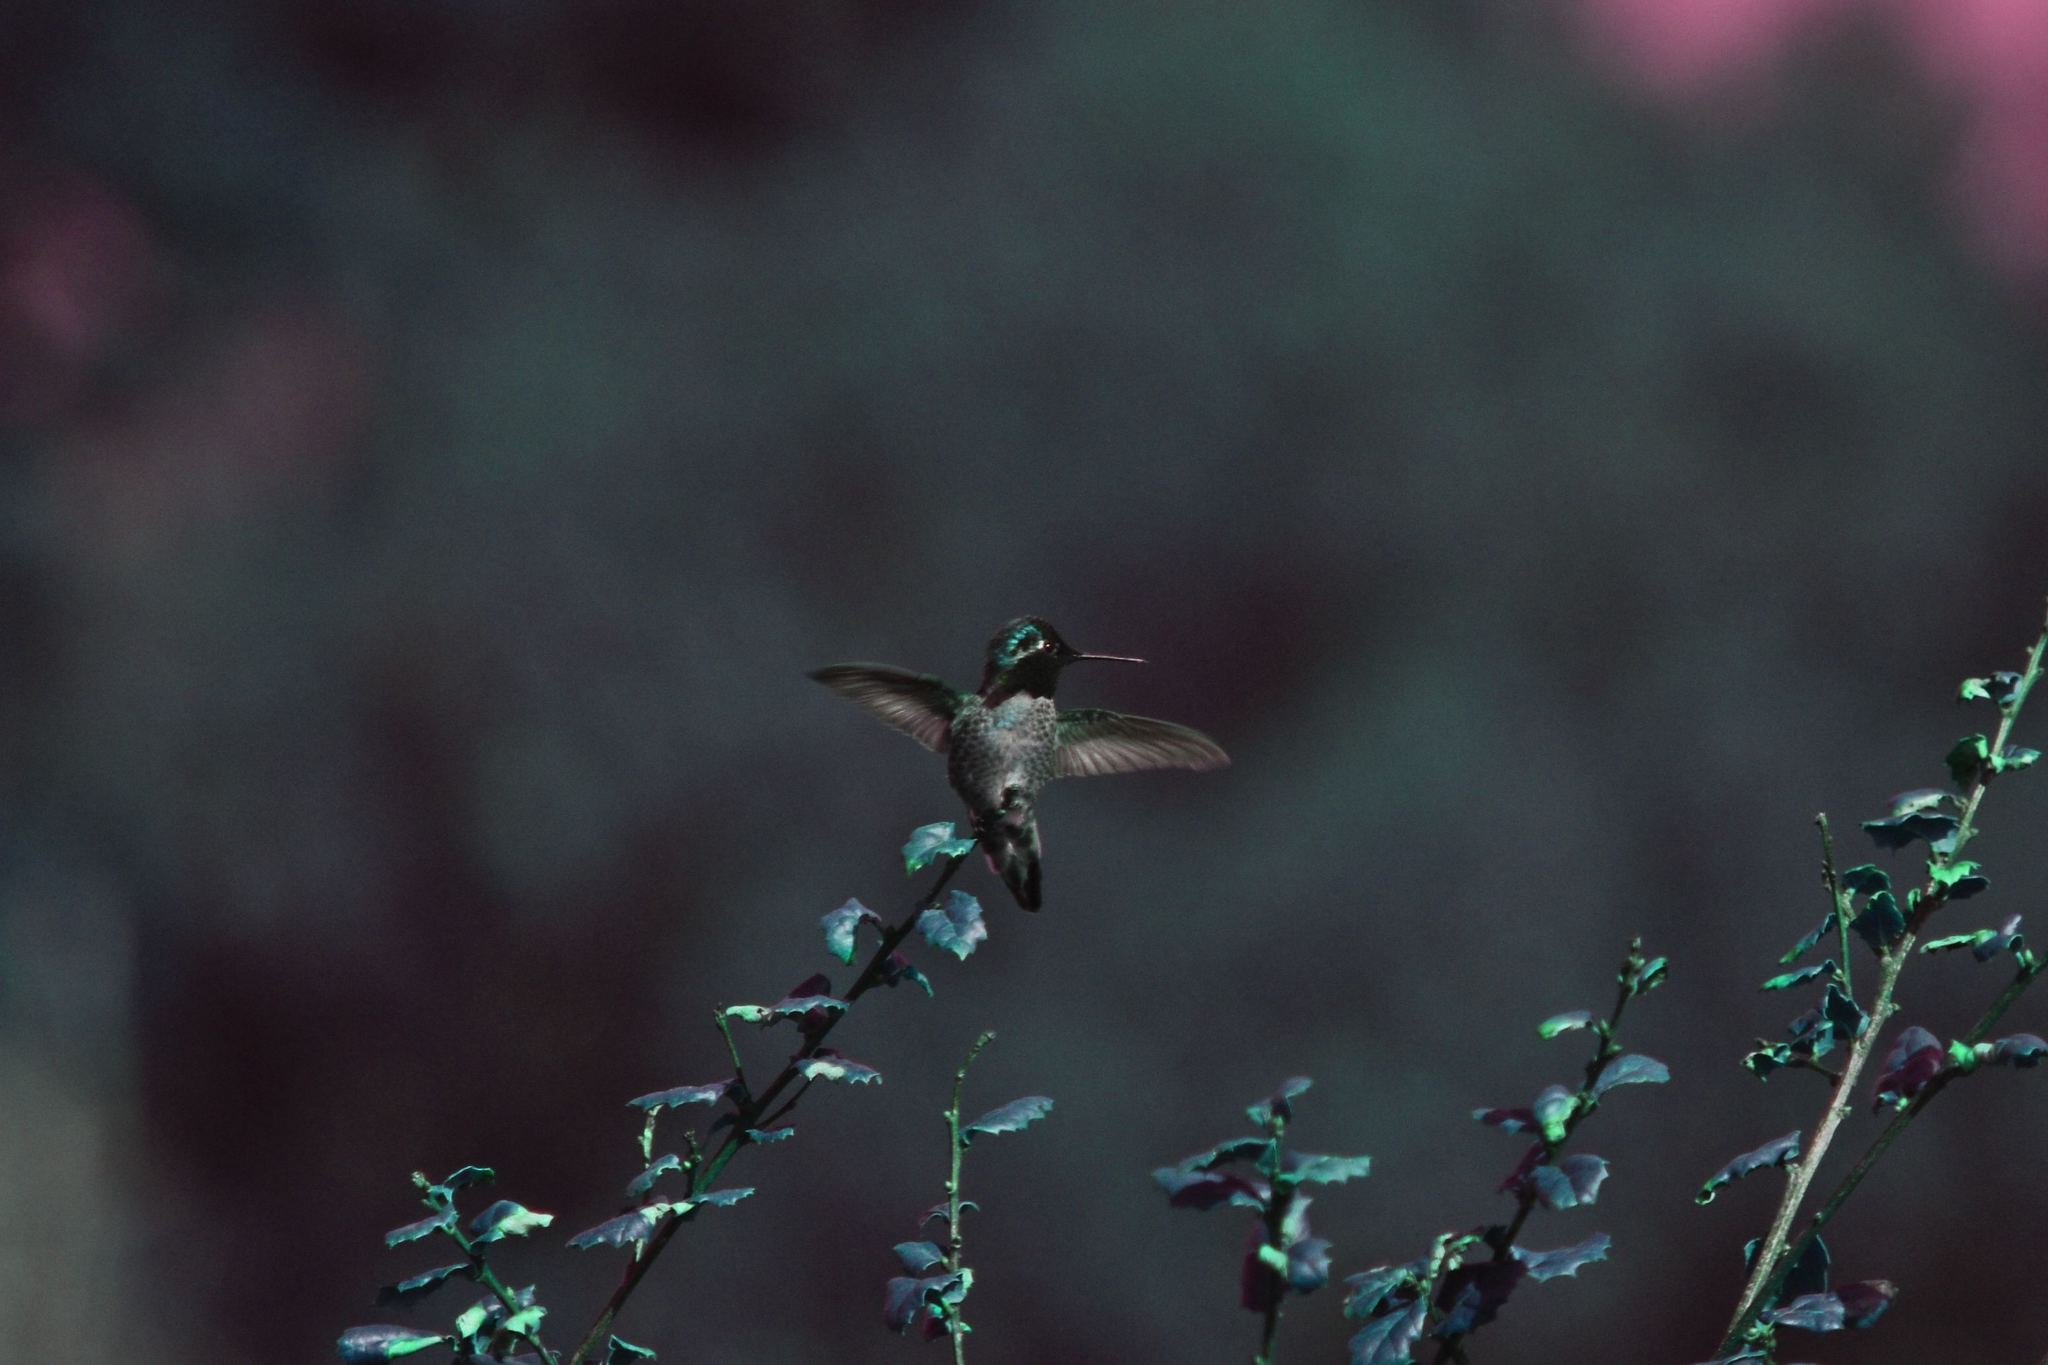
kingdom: Animalia
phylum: Chordata
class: Aves
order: Apodiformes
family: Trochilidae
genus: Calypte
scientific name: Calypte anna
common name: Anna's hummingbird
